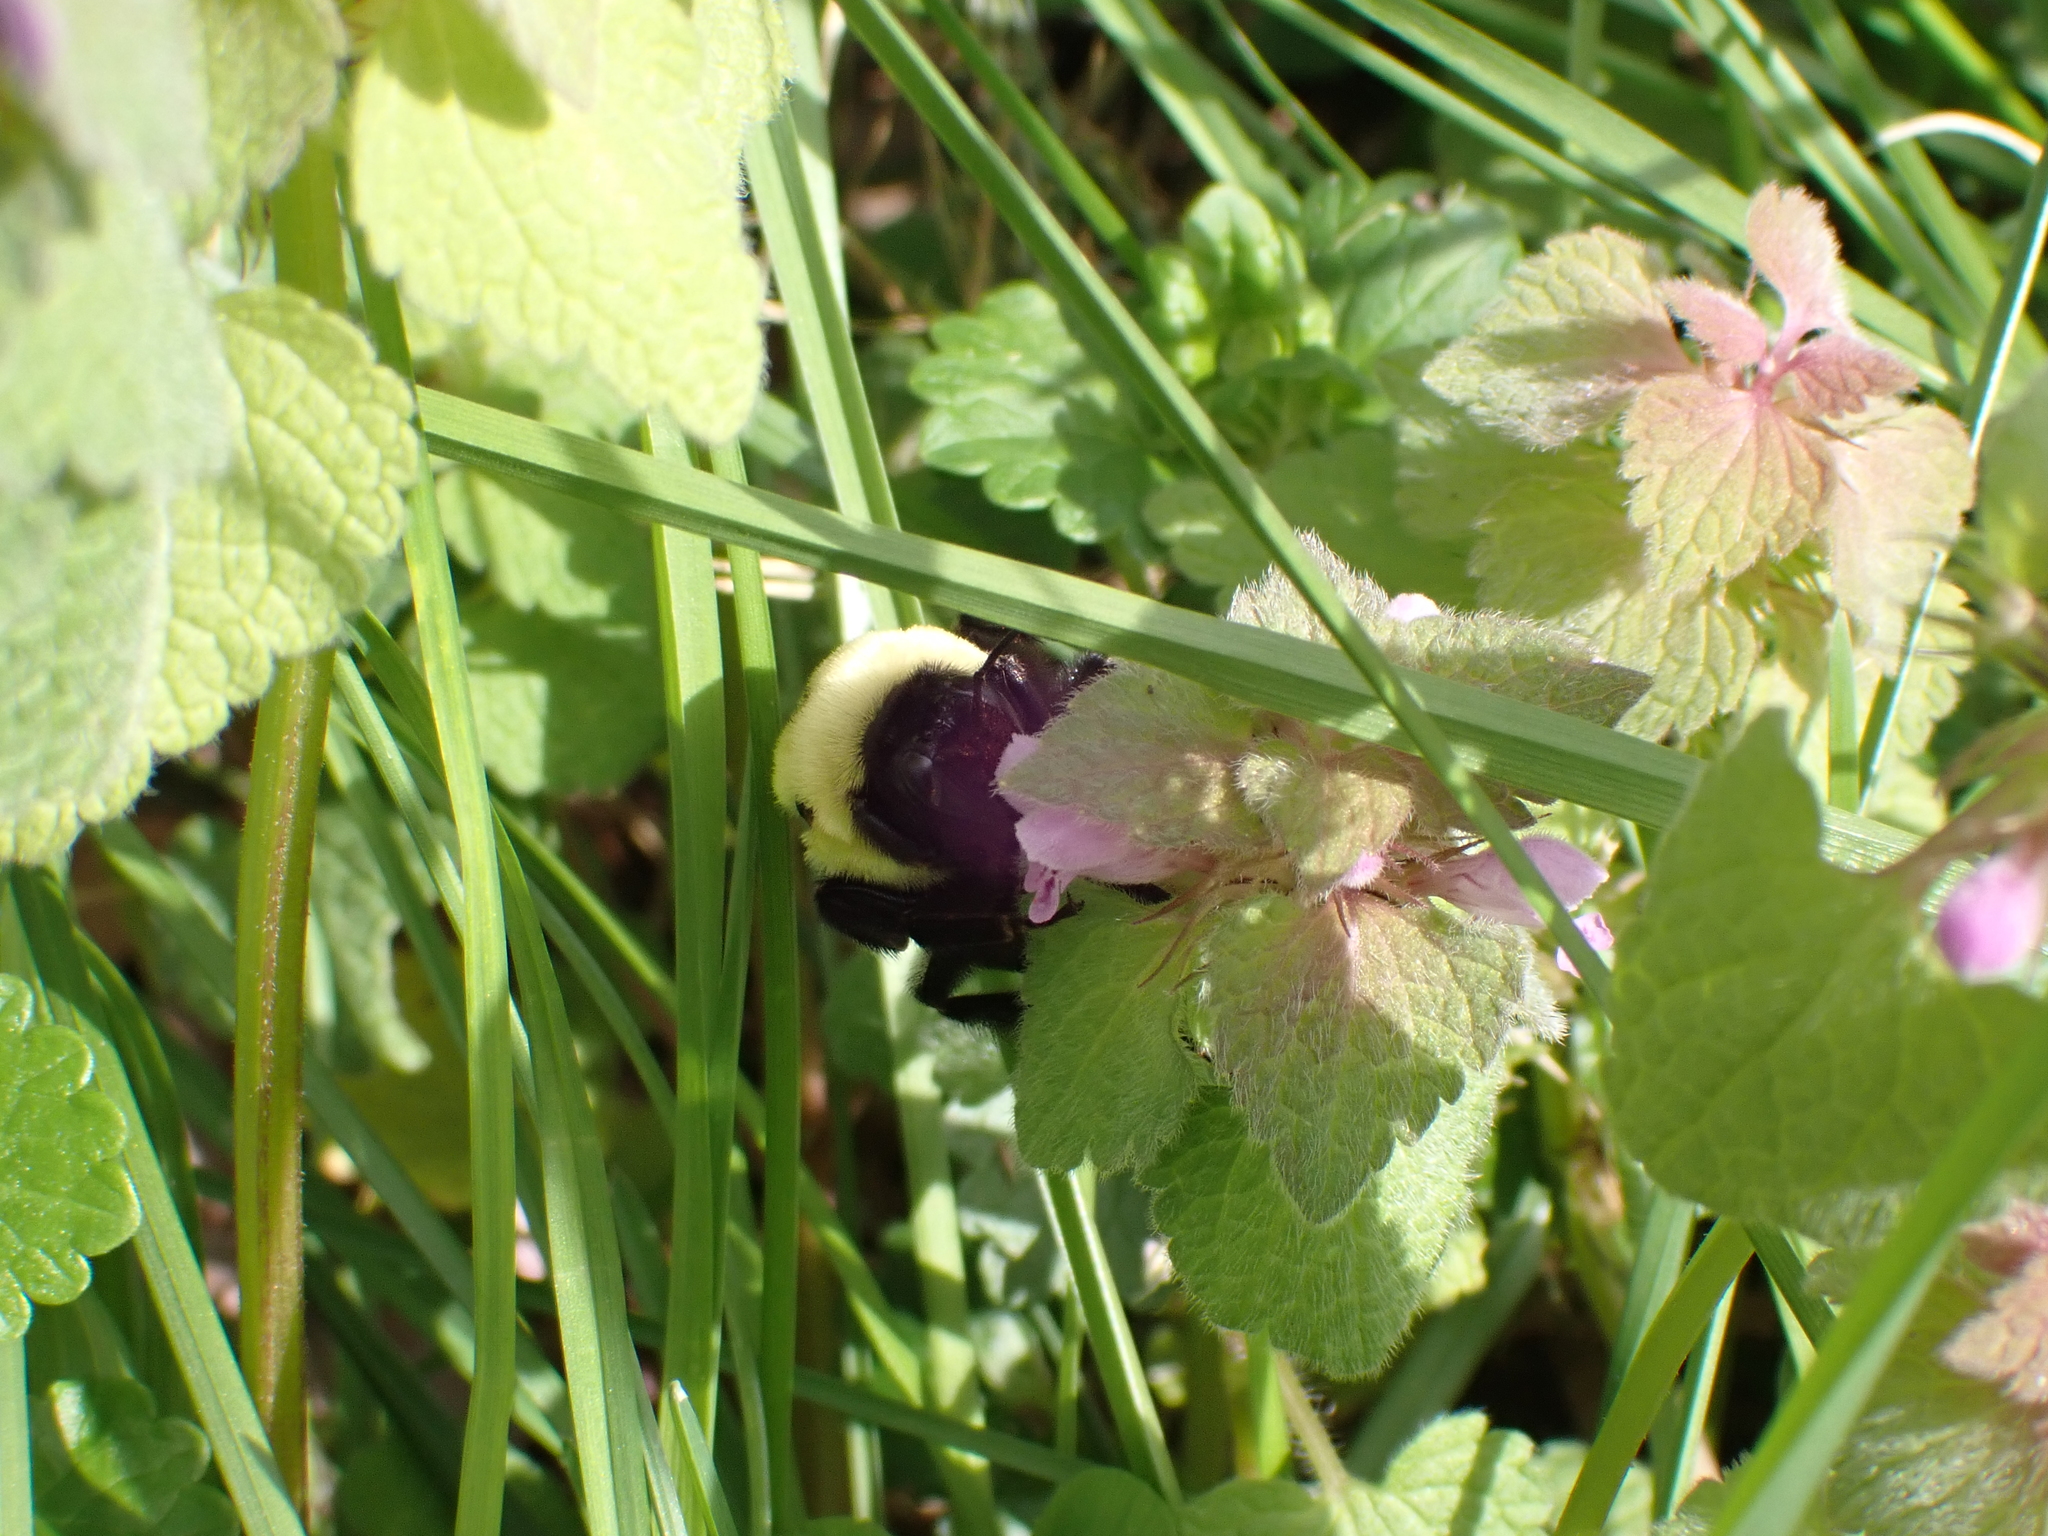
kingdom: Animalia
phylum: Arthropoda
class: Insecta
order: Hymenoptera
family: Apidae
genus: Bombus
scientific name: Bombus griseocollis
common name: Brown-belted bumble bee
